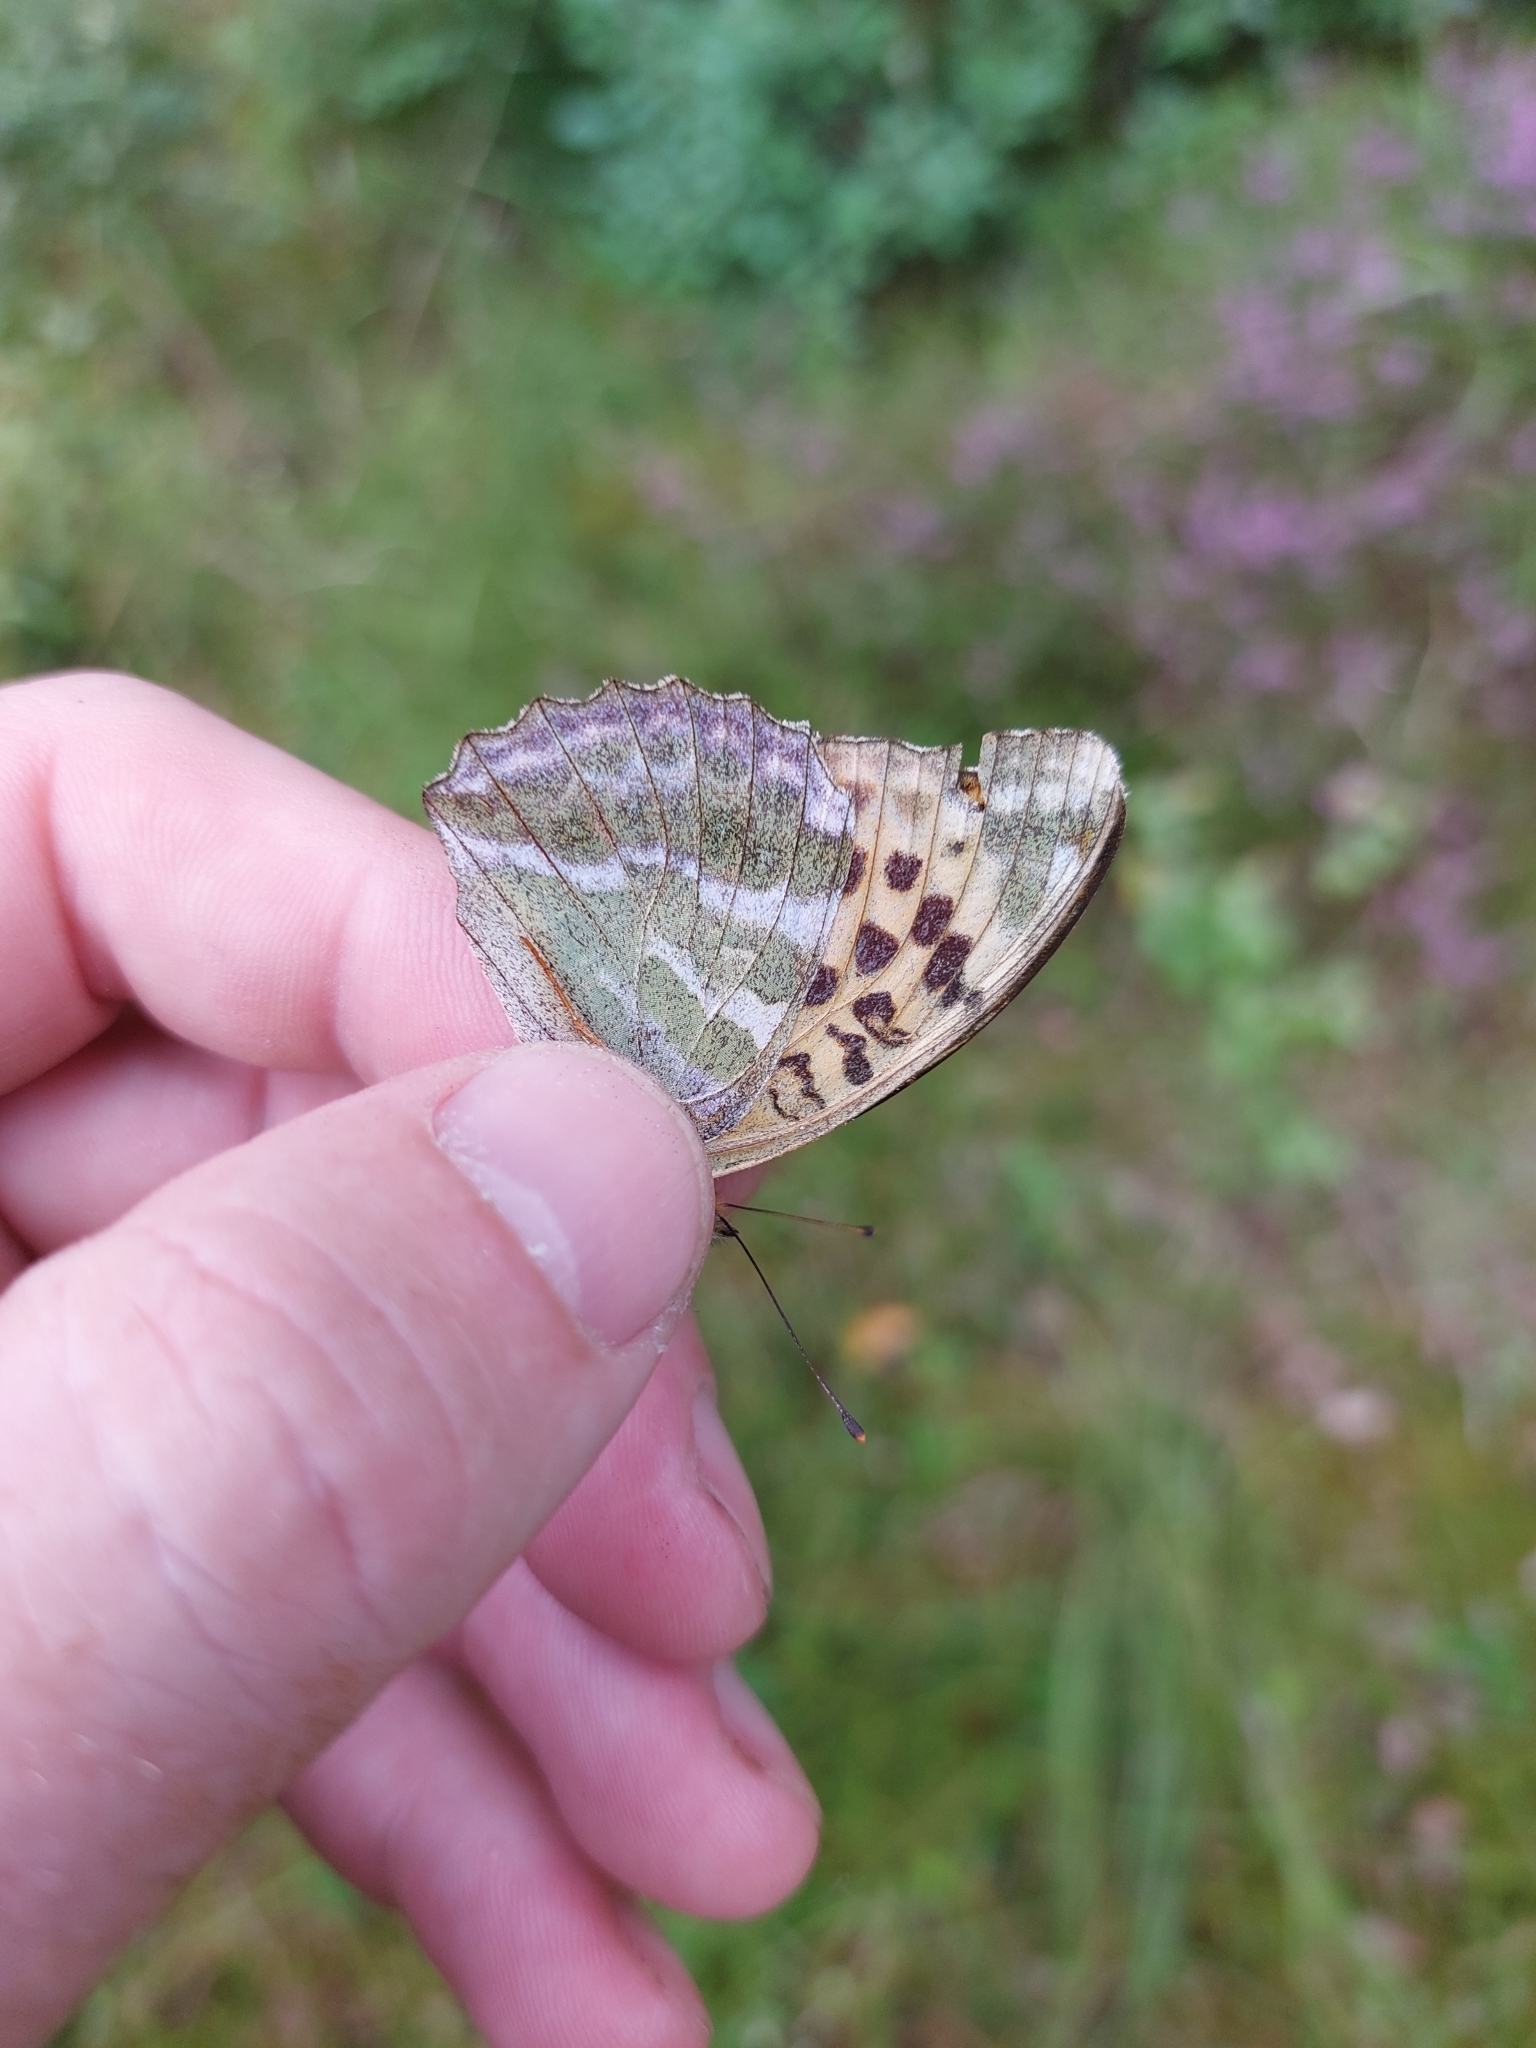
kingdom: Animalia
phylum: Arthropoda
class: Insecta
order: Lepidoptera
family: Nymphalidae
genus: Argynnis
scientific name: Argynnis paphia
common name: Silver-washed fritillary
